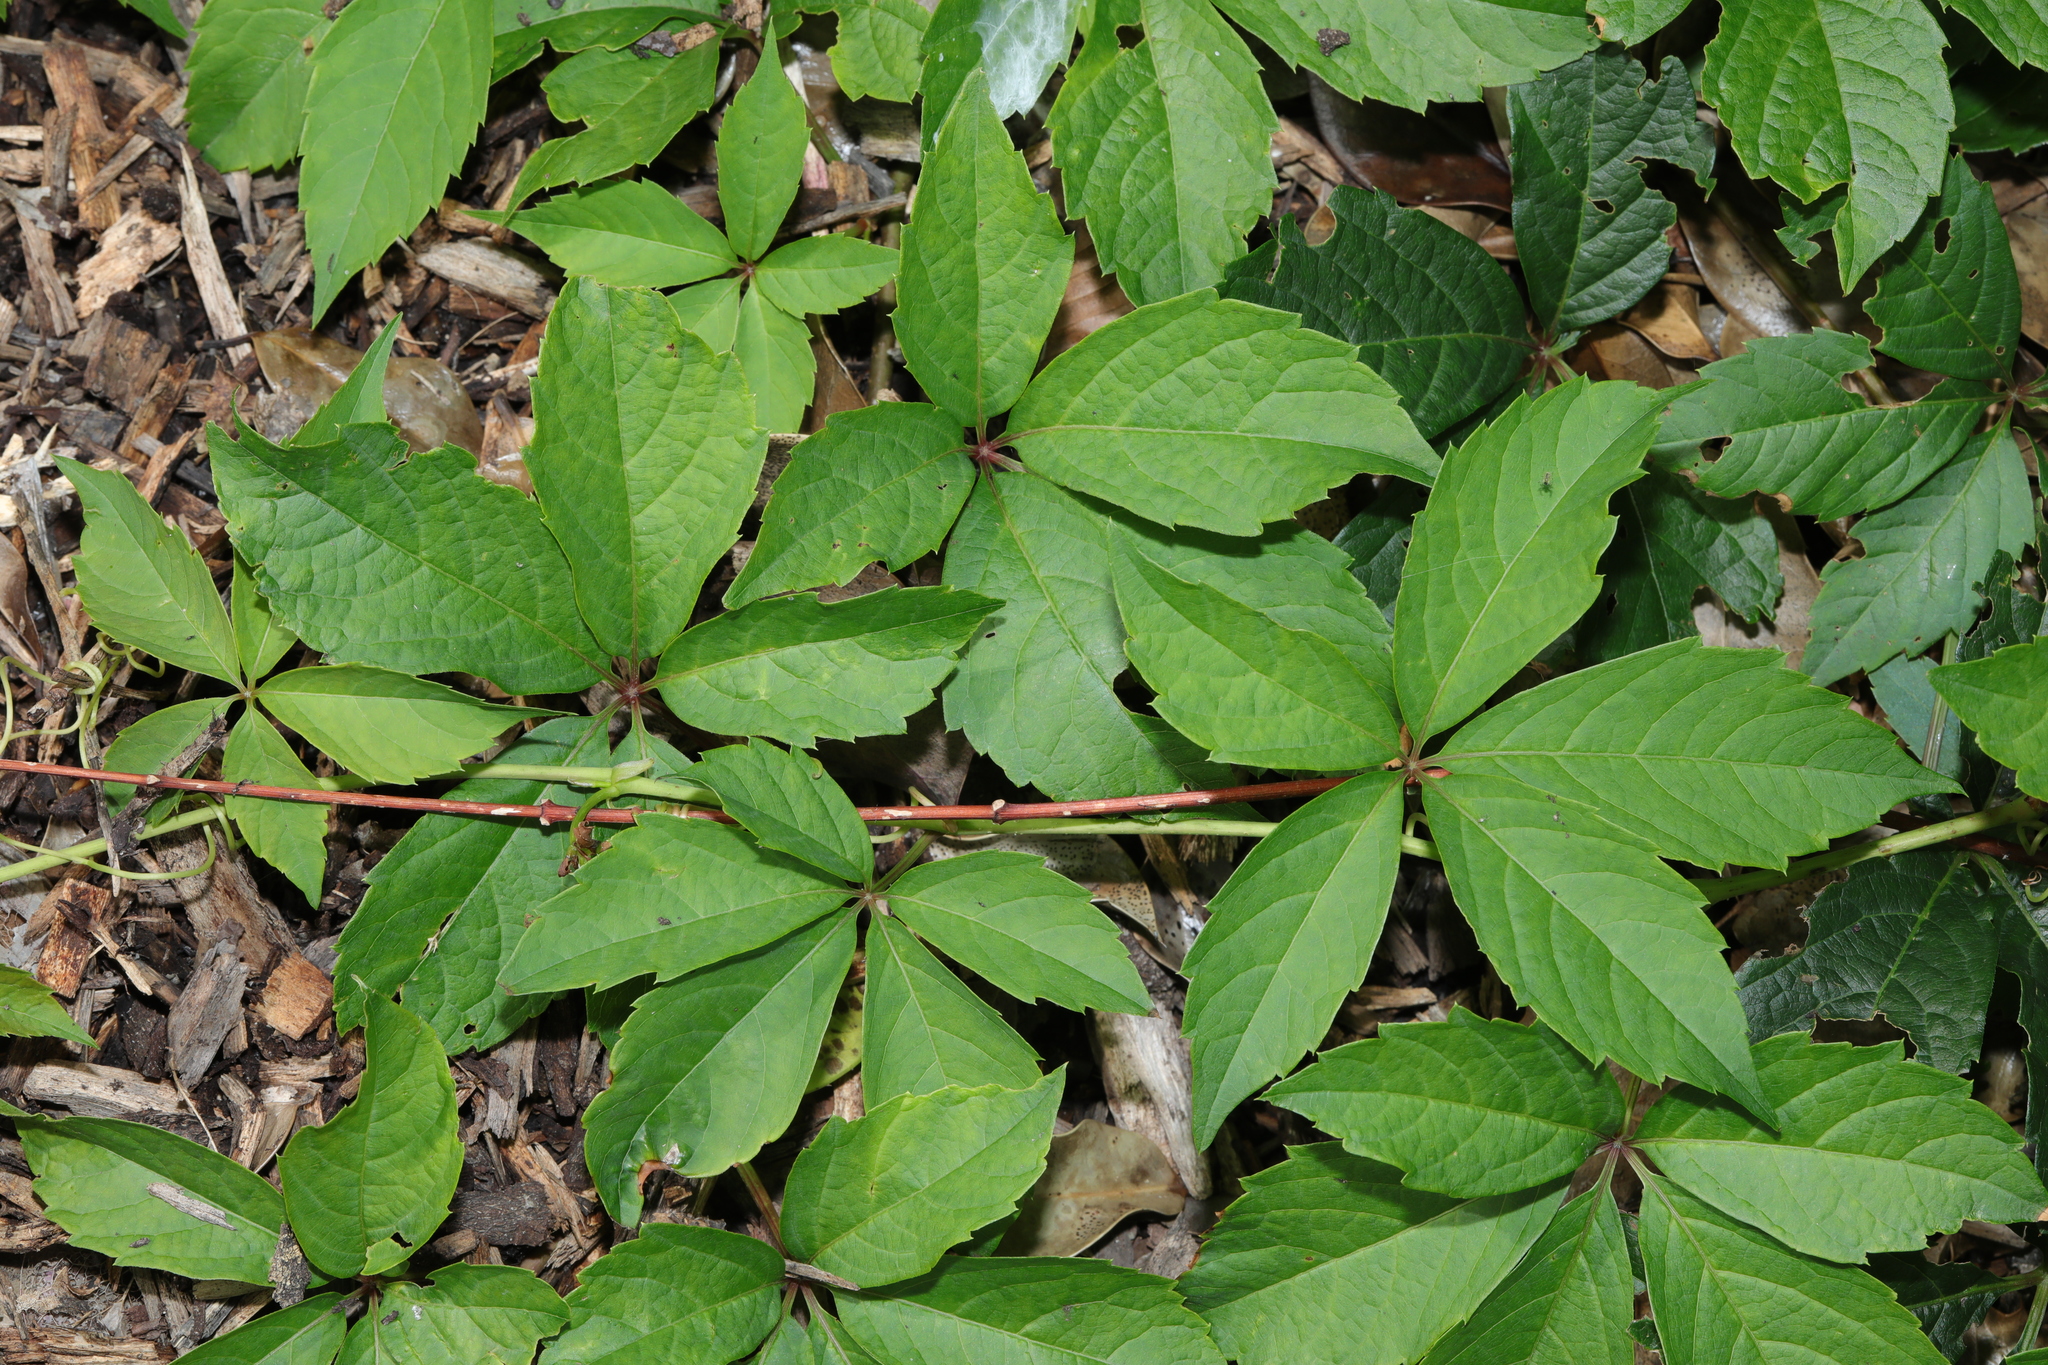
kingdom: Plantae
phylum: Tracheophyta
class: Magnoliopsida
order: Vitales
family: Vitaceae
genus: Parthenocissus
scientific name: Parthenocissus quinquefolia
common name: Virginia-creeper
